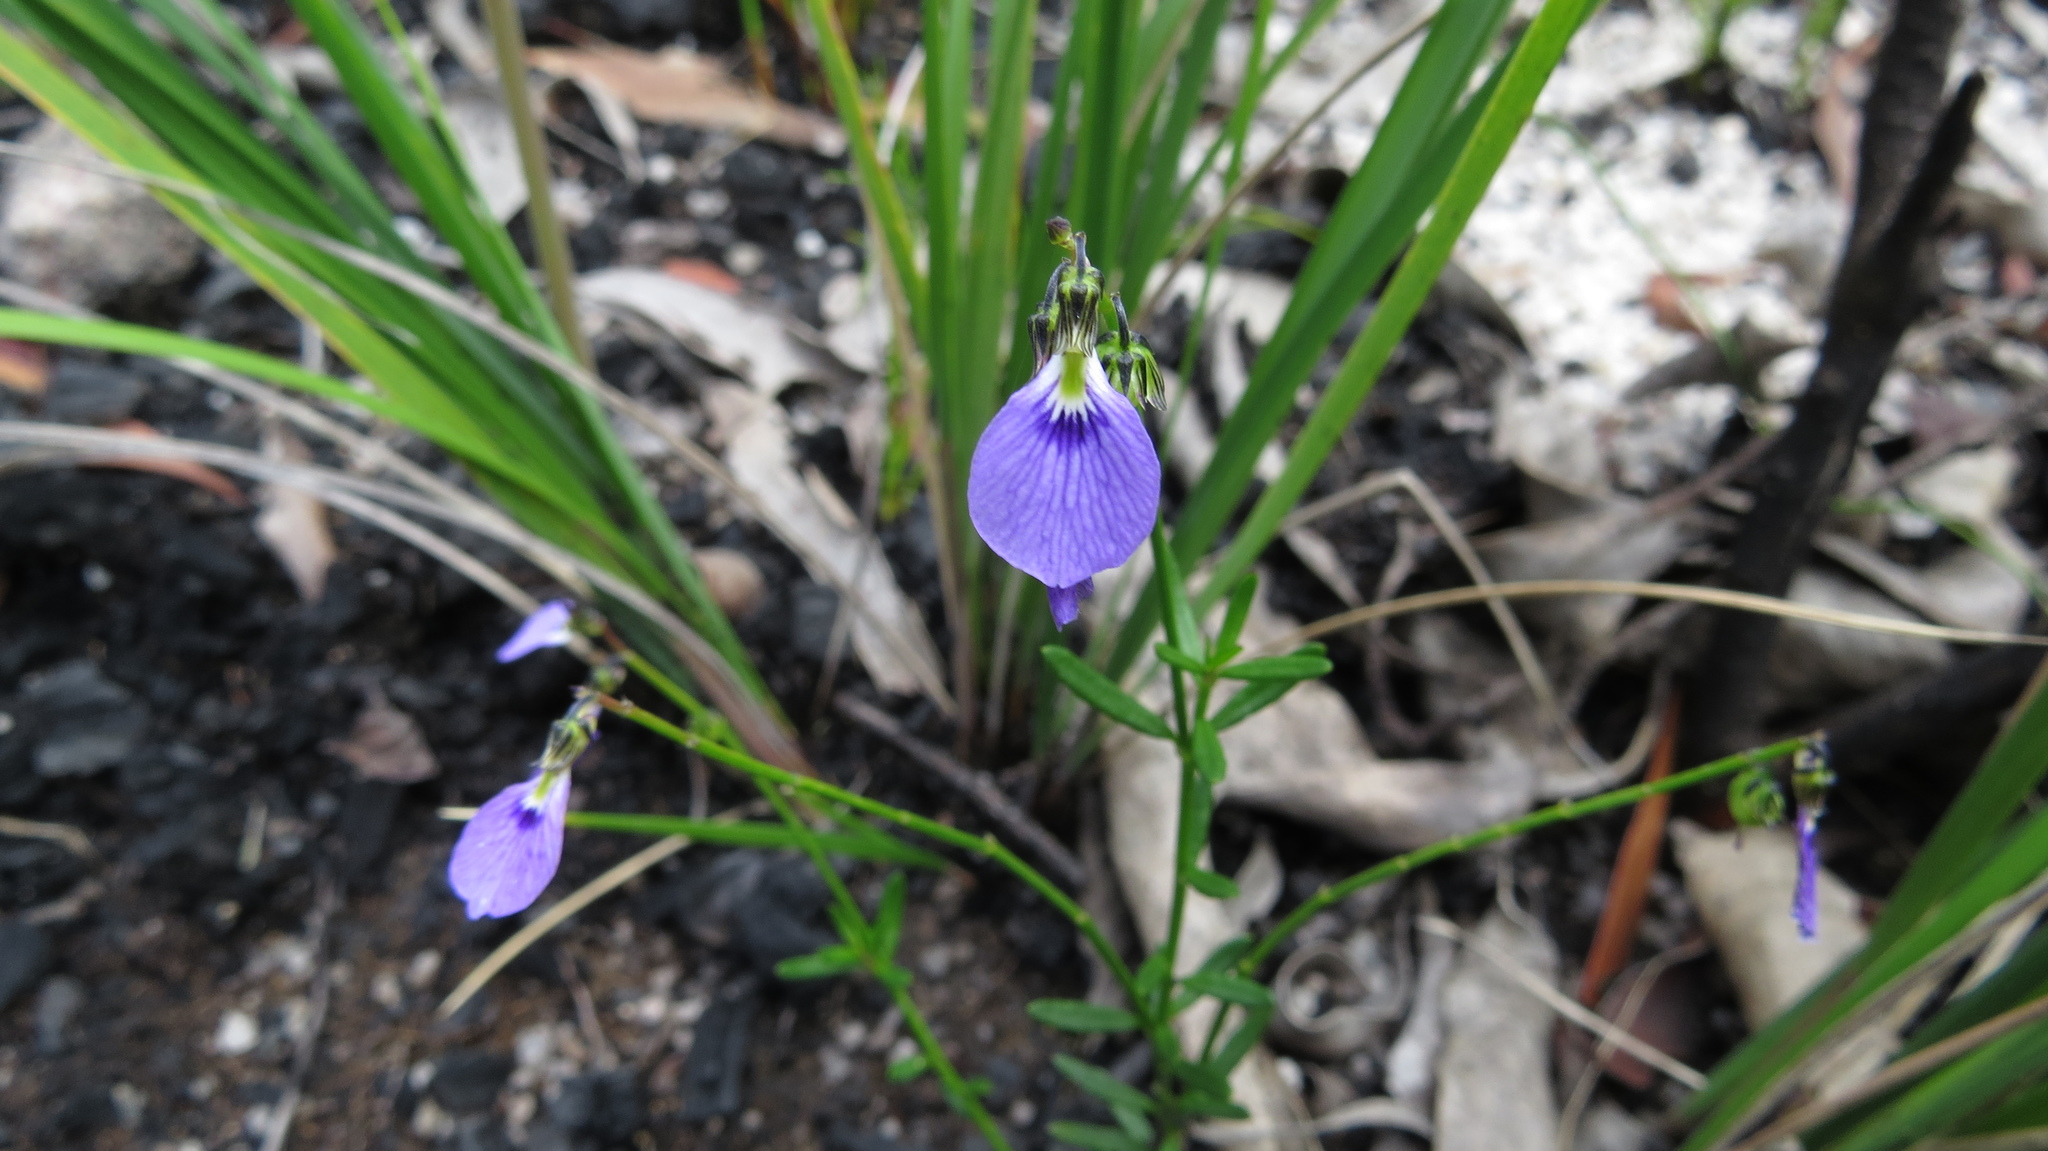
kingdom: Plantae
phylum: Tracheophyta
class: Magnoliopsida
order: Malpighiales
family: Violaceae
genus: Pigea
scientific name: Pigea monopetala
